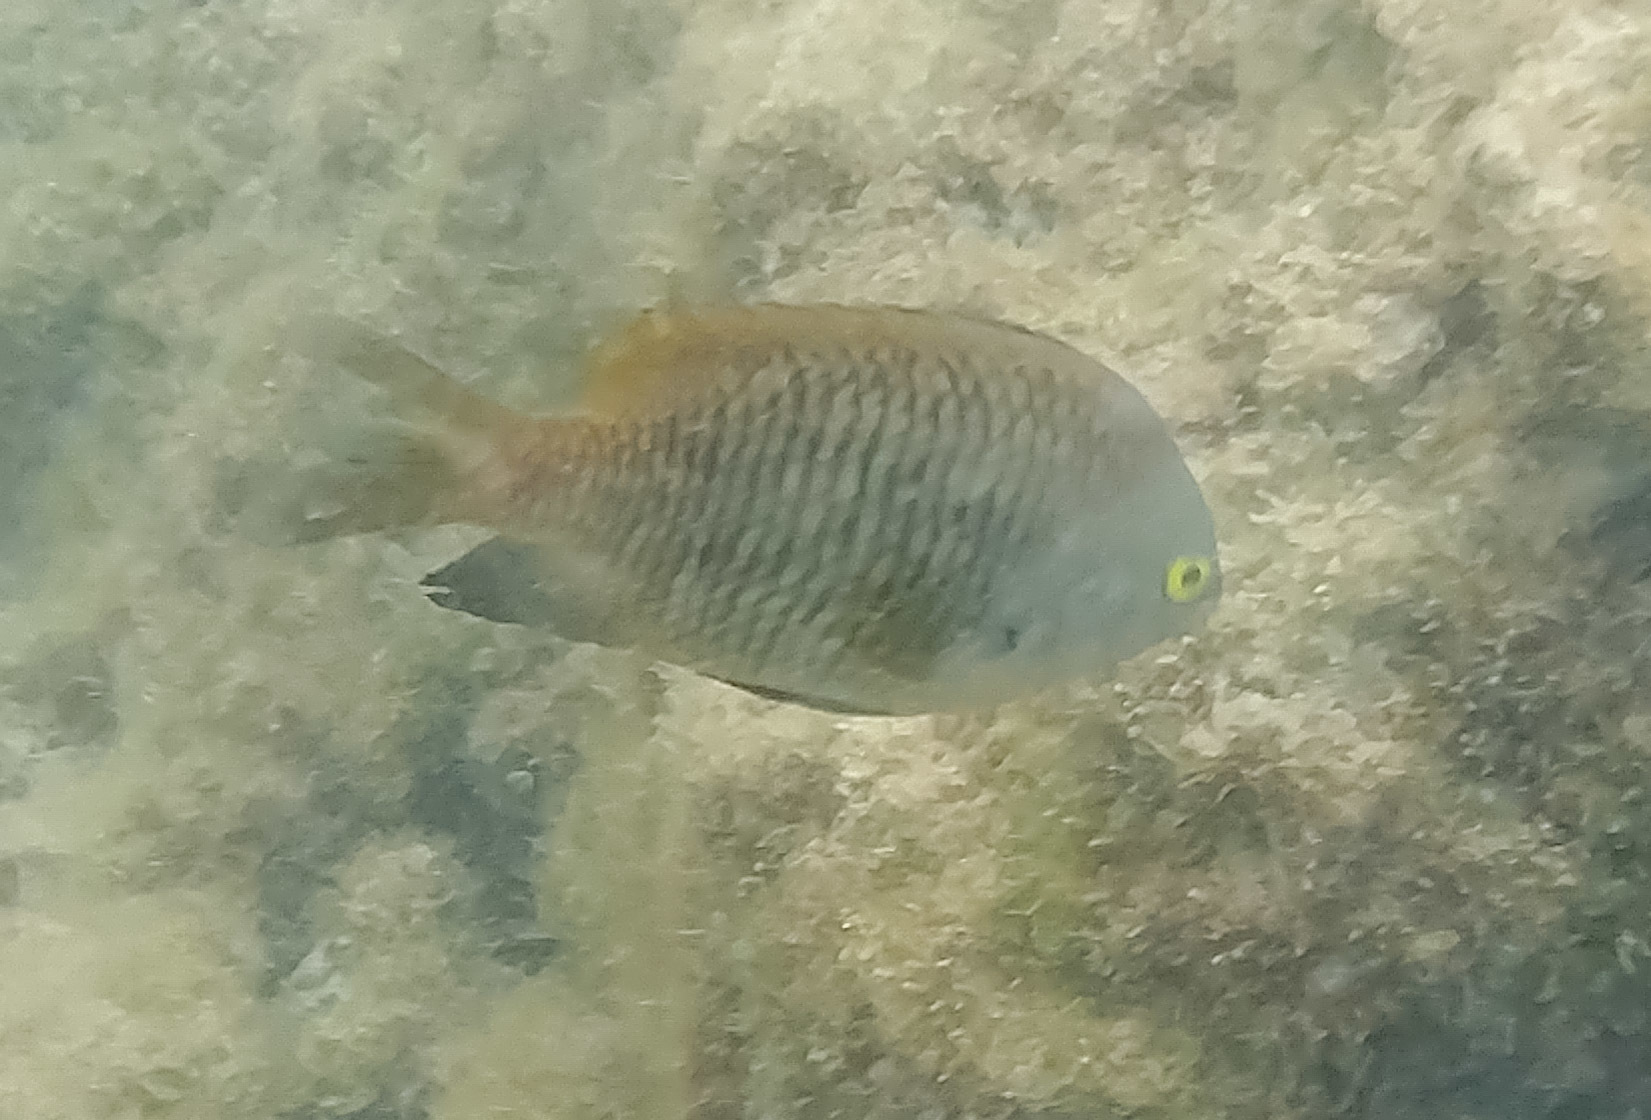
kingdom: Animalia
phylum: Chordata
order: Perciformes
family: Pomacentridae
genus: Stegastes
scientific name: Stegastes fasciolatus
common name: Pacific gregory
